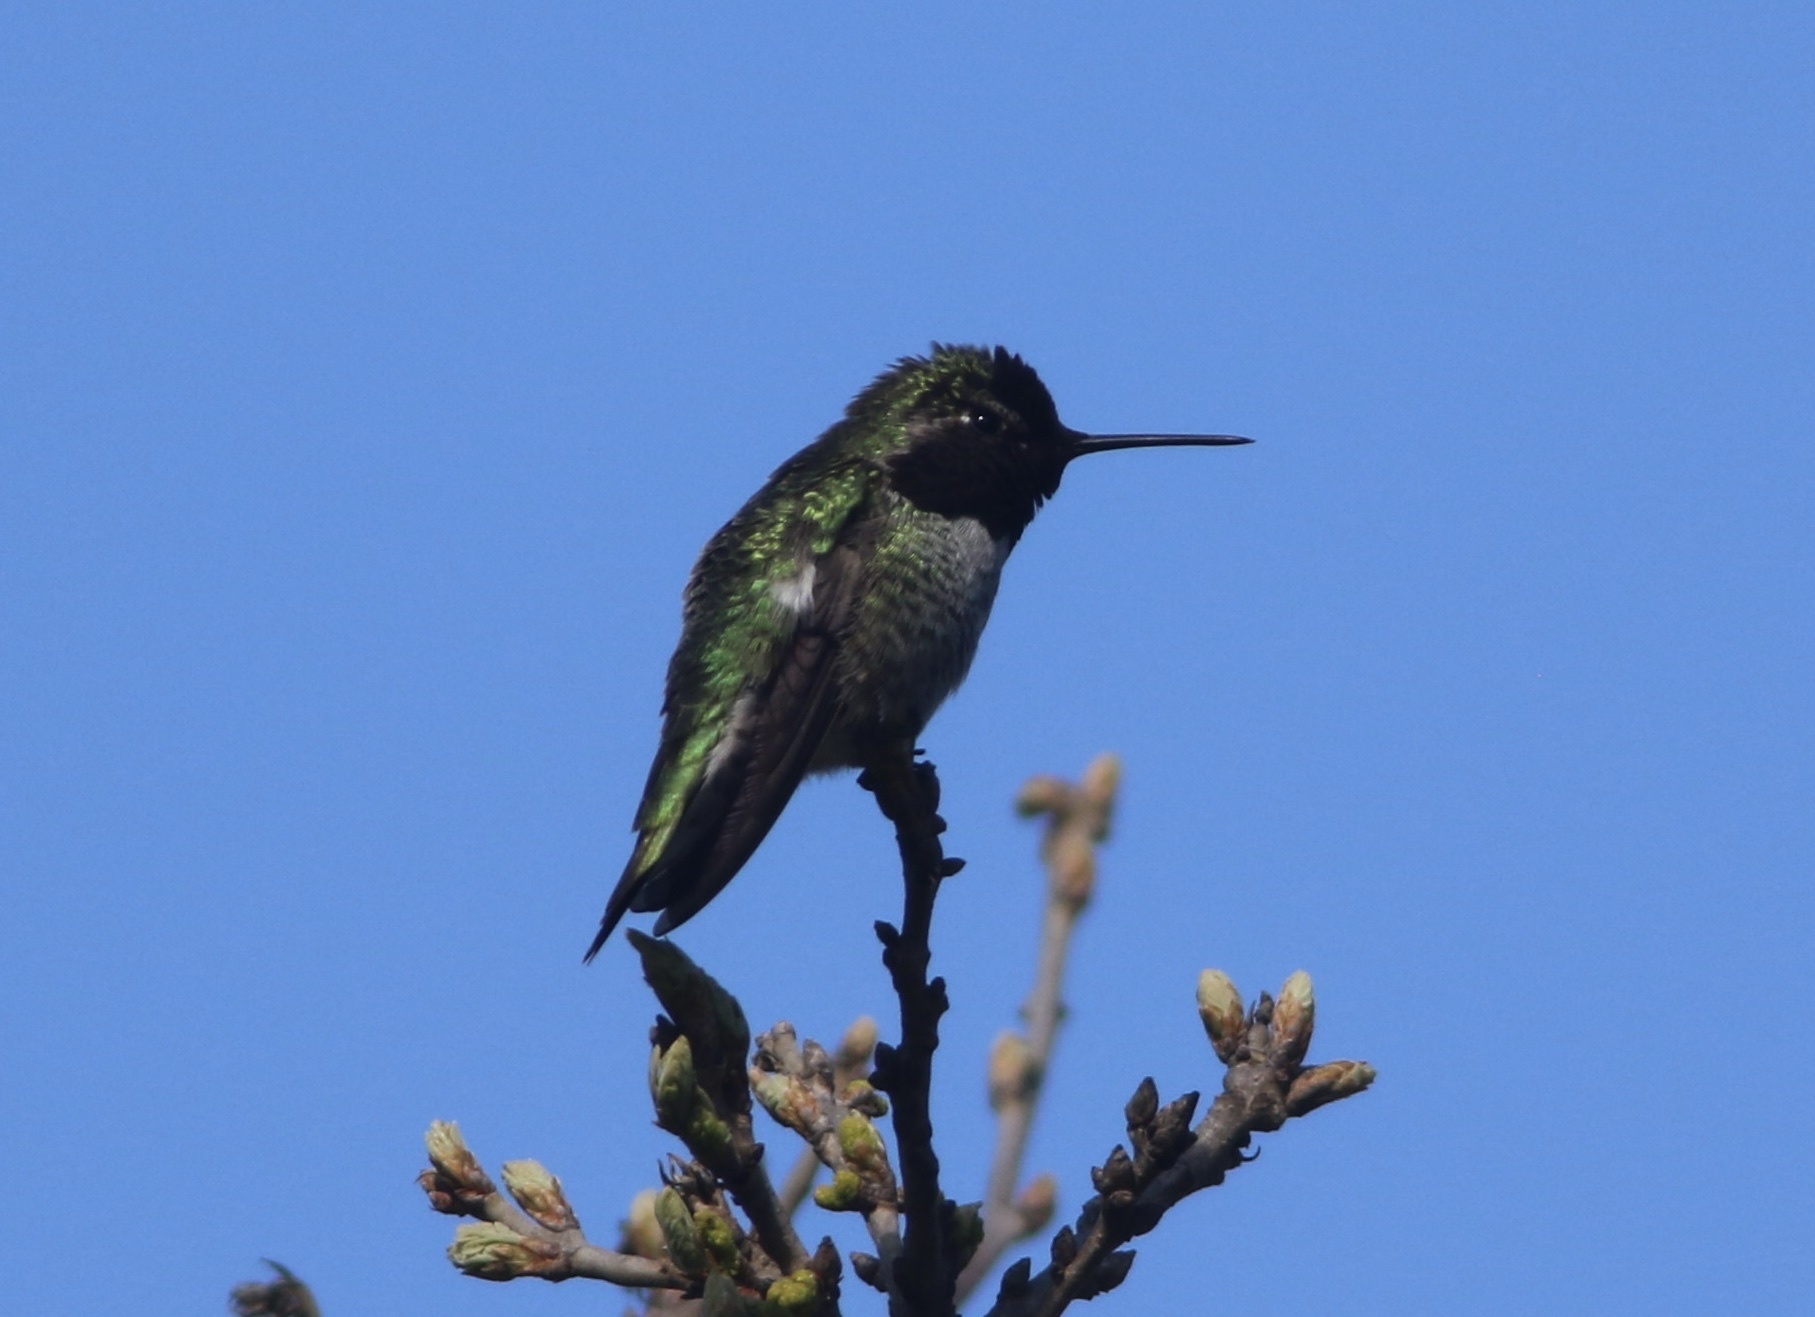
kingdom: Animalia
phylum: Chordata
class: Aves
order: Apodiformes
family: Trochilidae
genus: Calypte
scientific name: Calypte anna
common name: Anna's hummingbird
